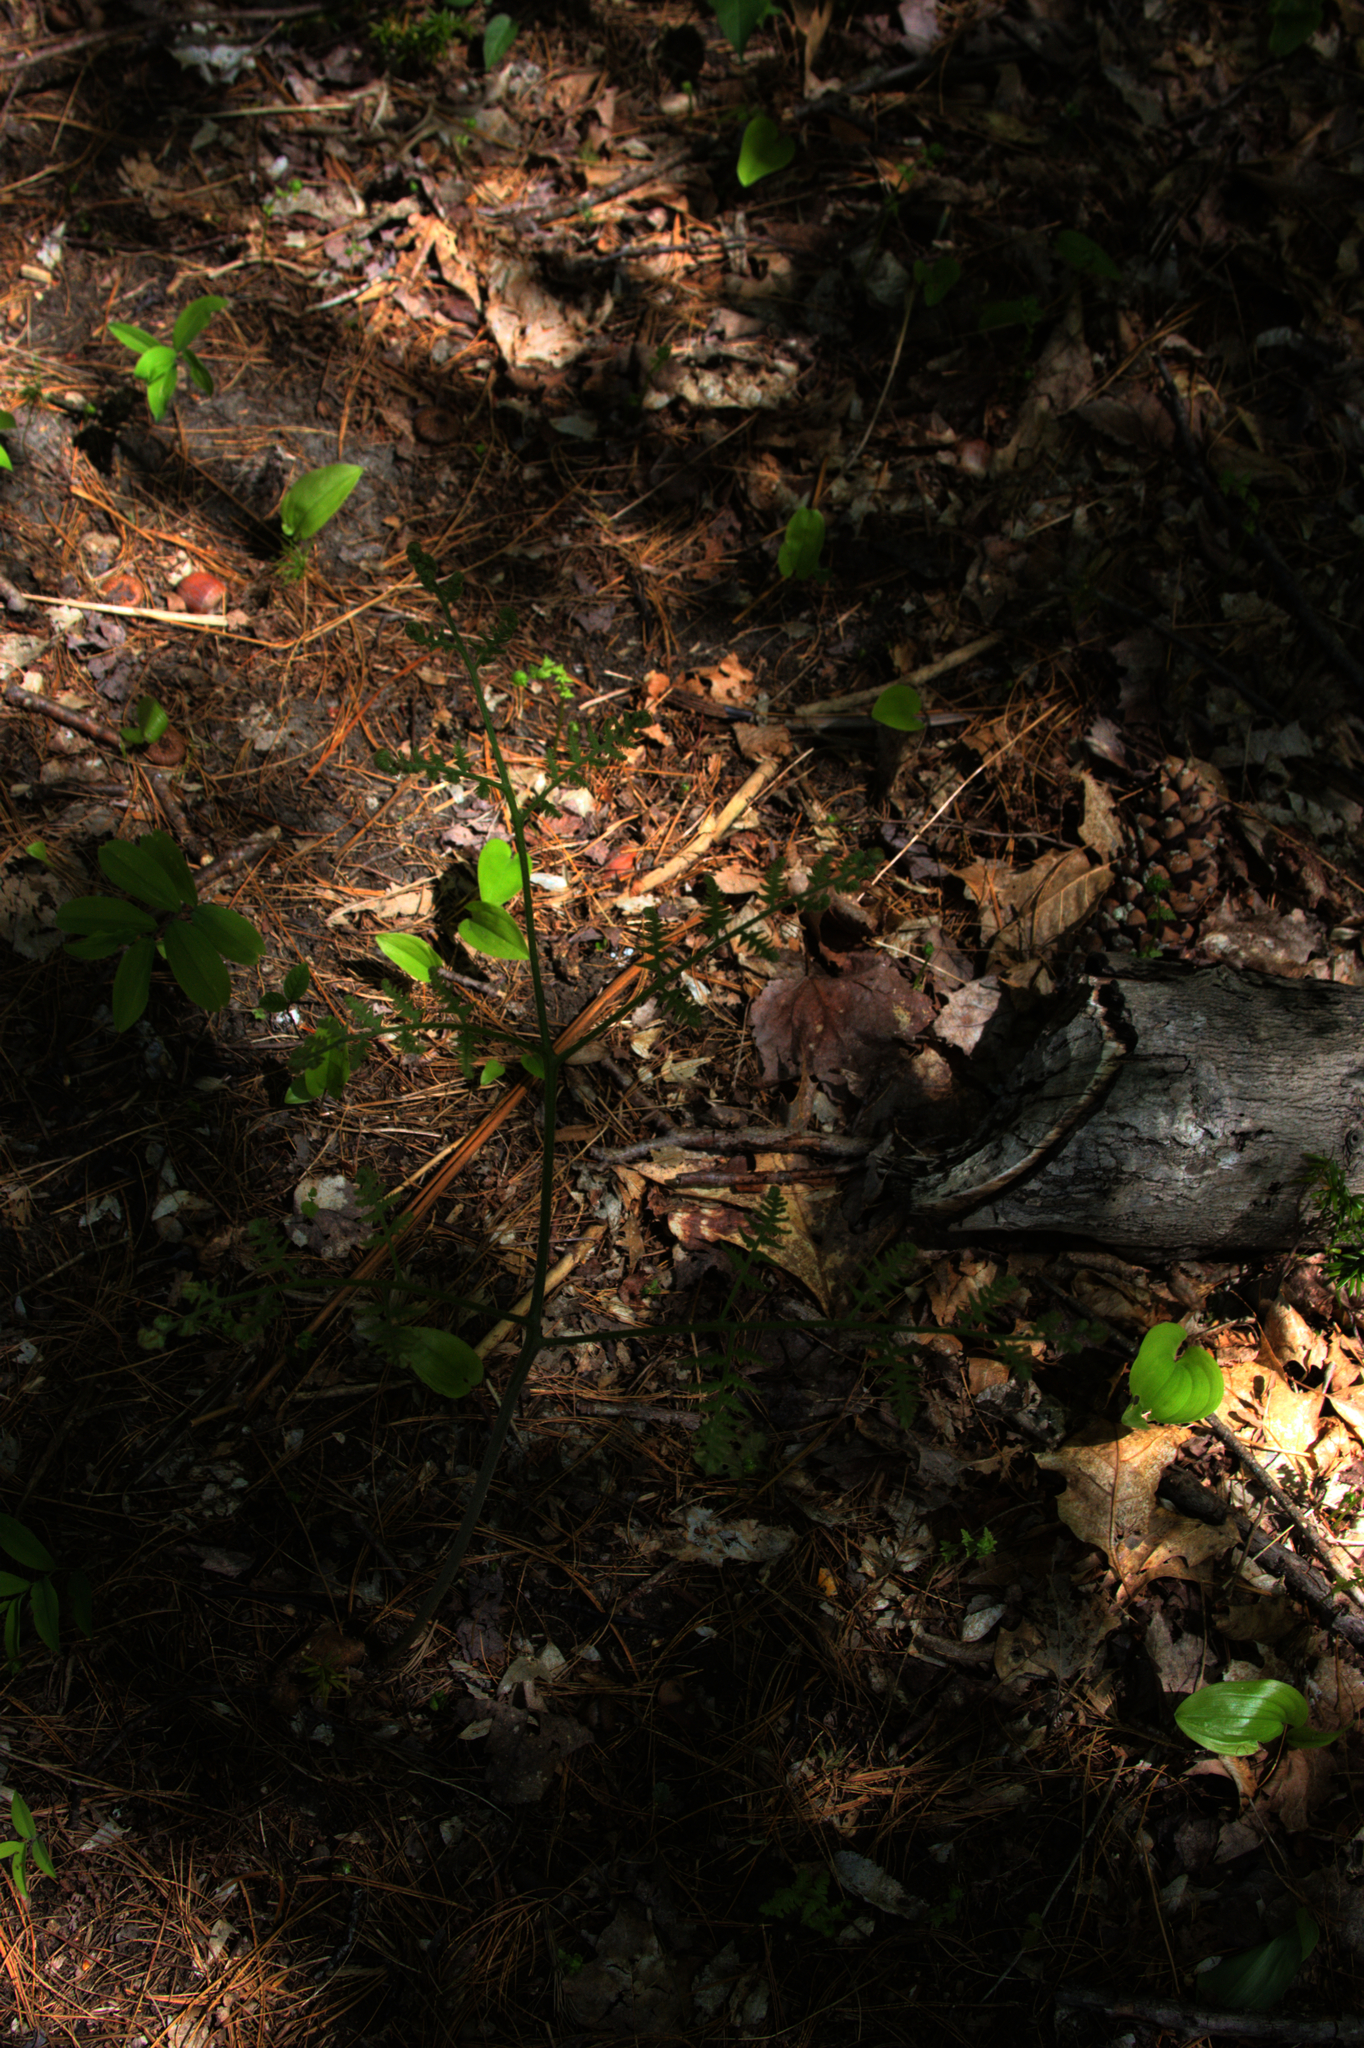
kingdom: Plantae
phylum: Tracheophyta
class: Liliopsida
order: Asparagales
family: Asparagaceae
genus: Maianthemum
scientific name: Maianthemum canadense
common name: False lily-of-the-valley
